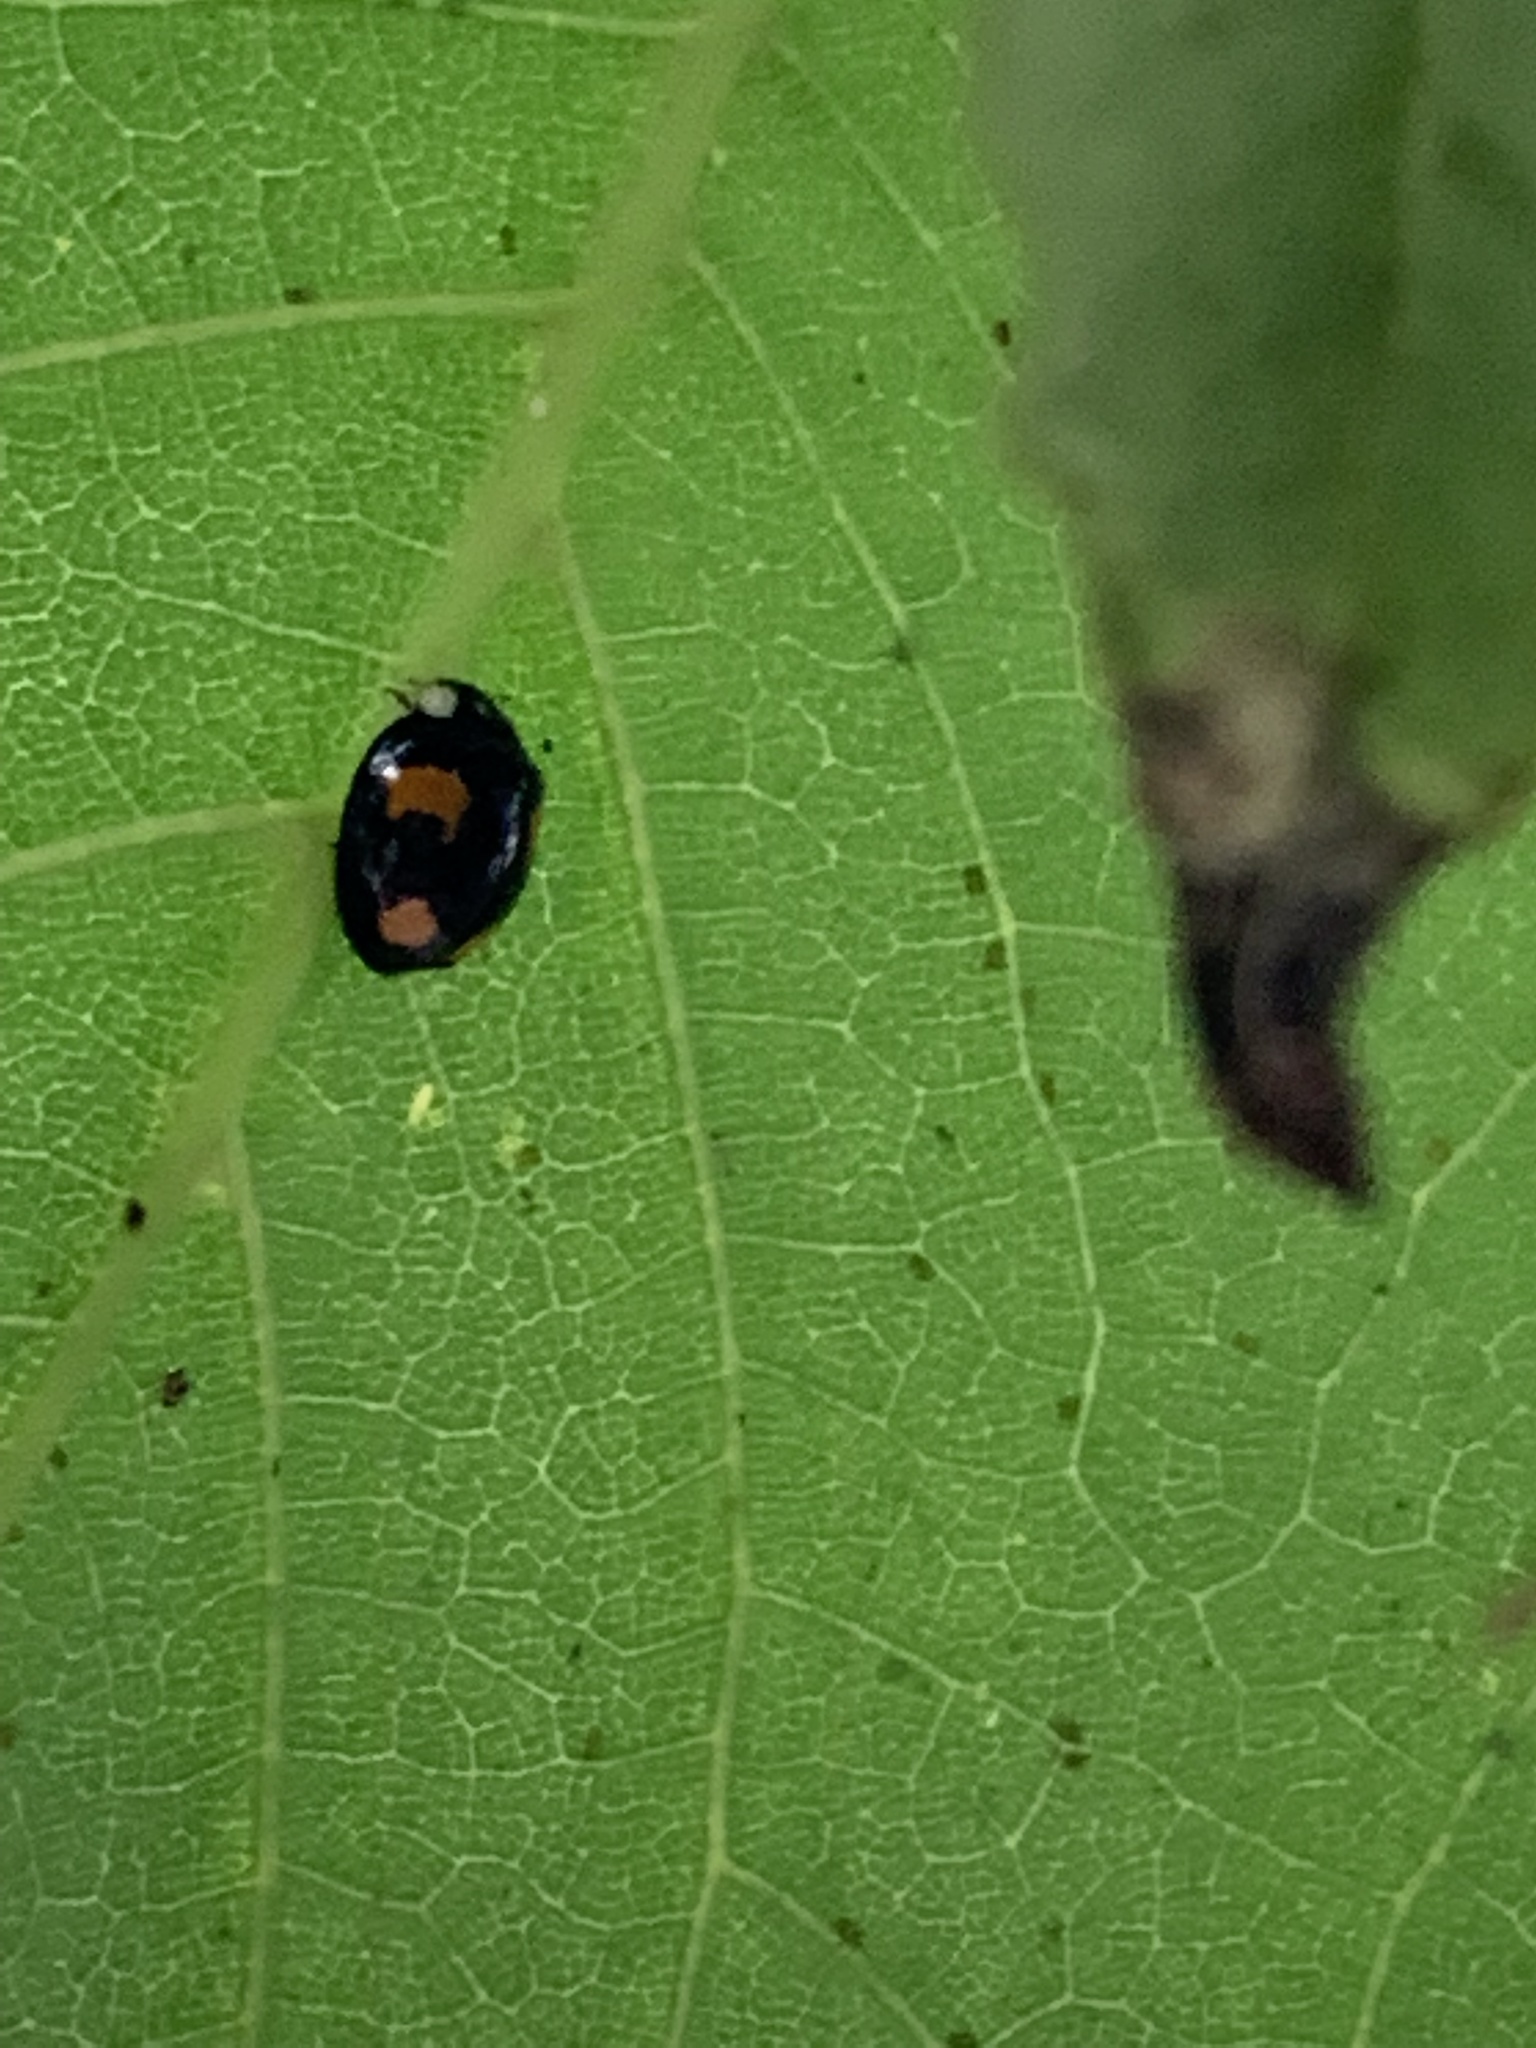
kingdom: Animalia
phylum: Arthropoda
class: Insecta
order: Coleoptera
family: Coccinellidae
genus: Harmonia
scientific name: Harmonia axyridis
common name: Harlequin ladybird
